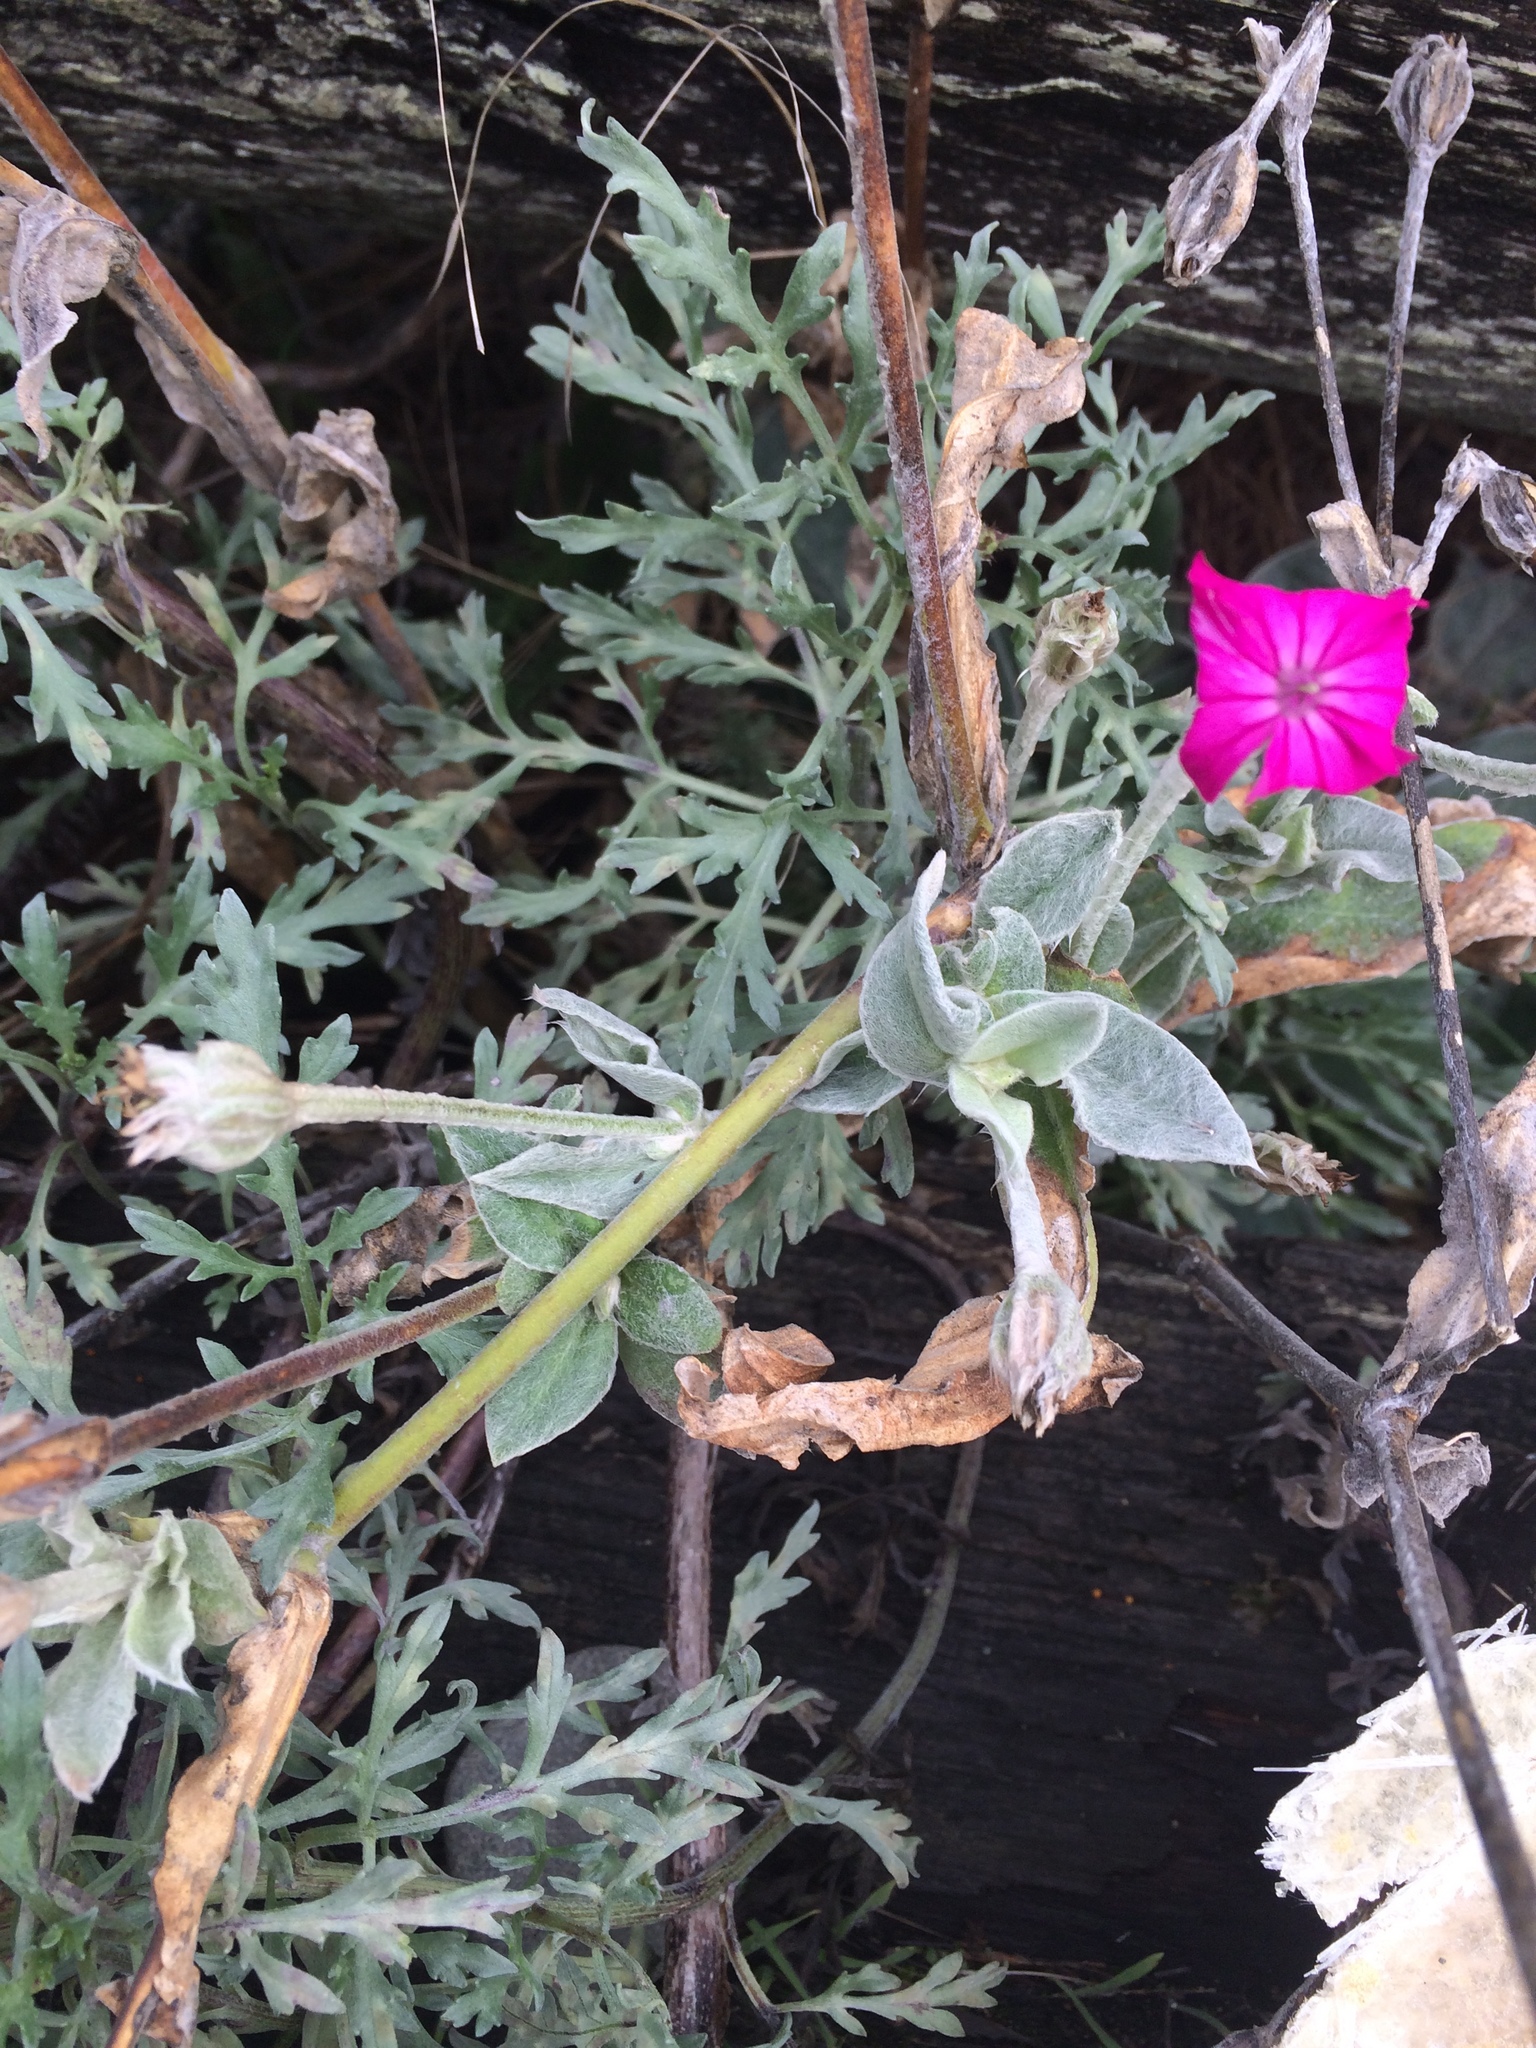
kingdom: Plantae
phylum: Tracheophyta
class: Magnoliopsida
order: Caryophyllales
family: Caryophyllaceae
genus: Silene
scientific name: Silene coronaria
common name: Rose campion
